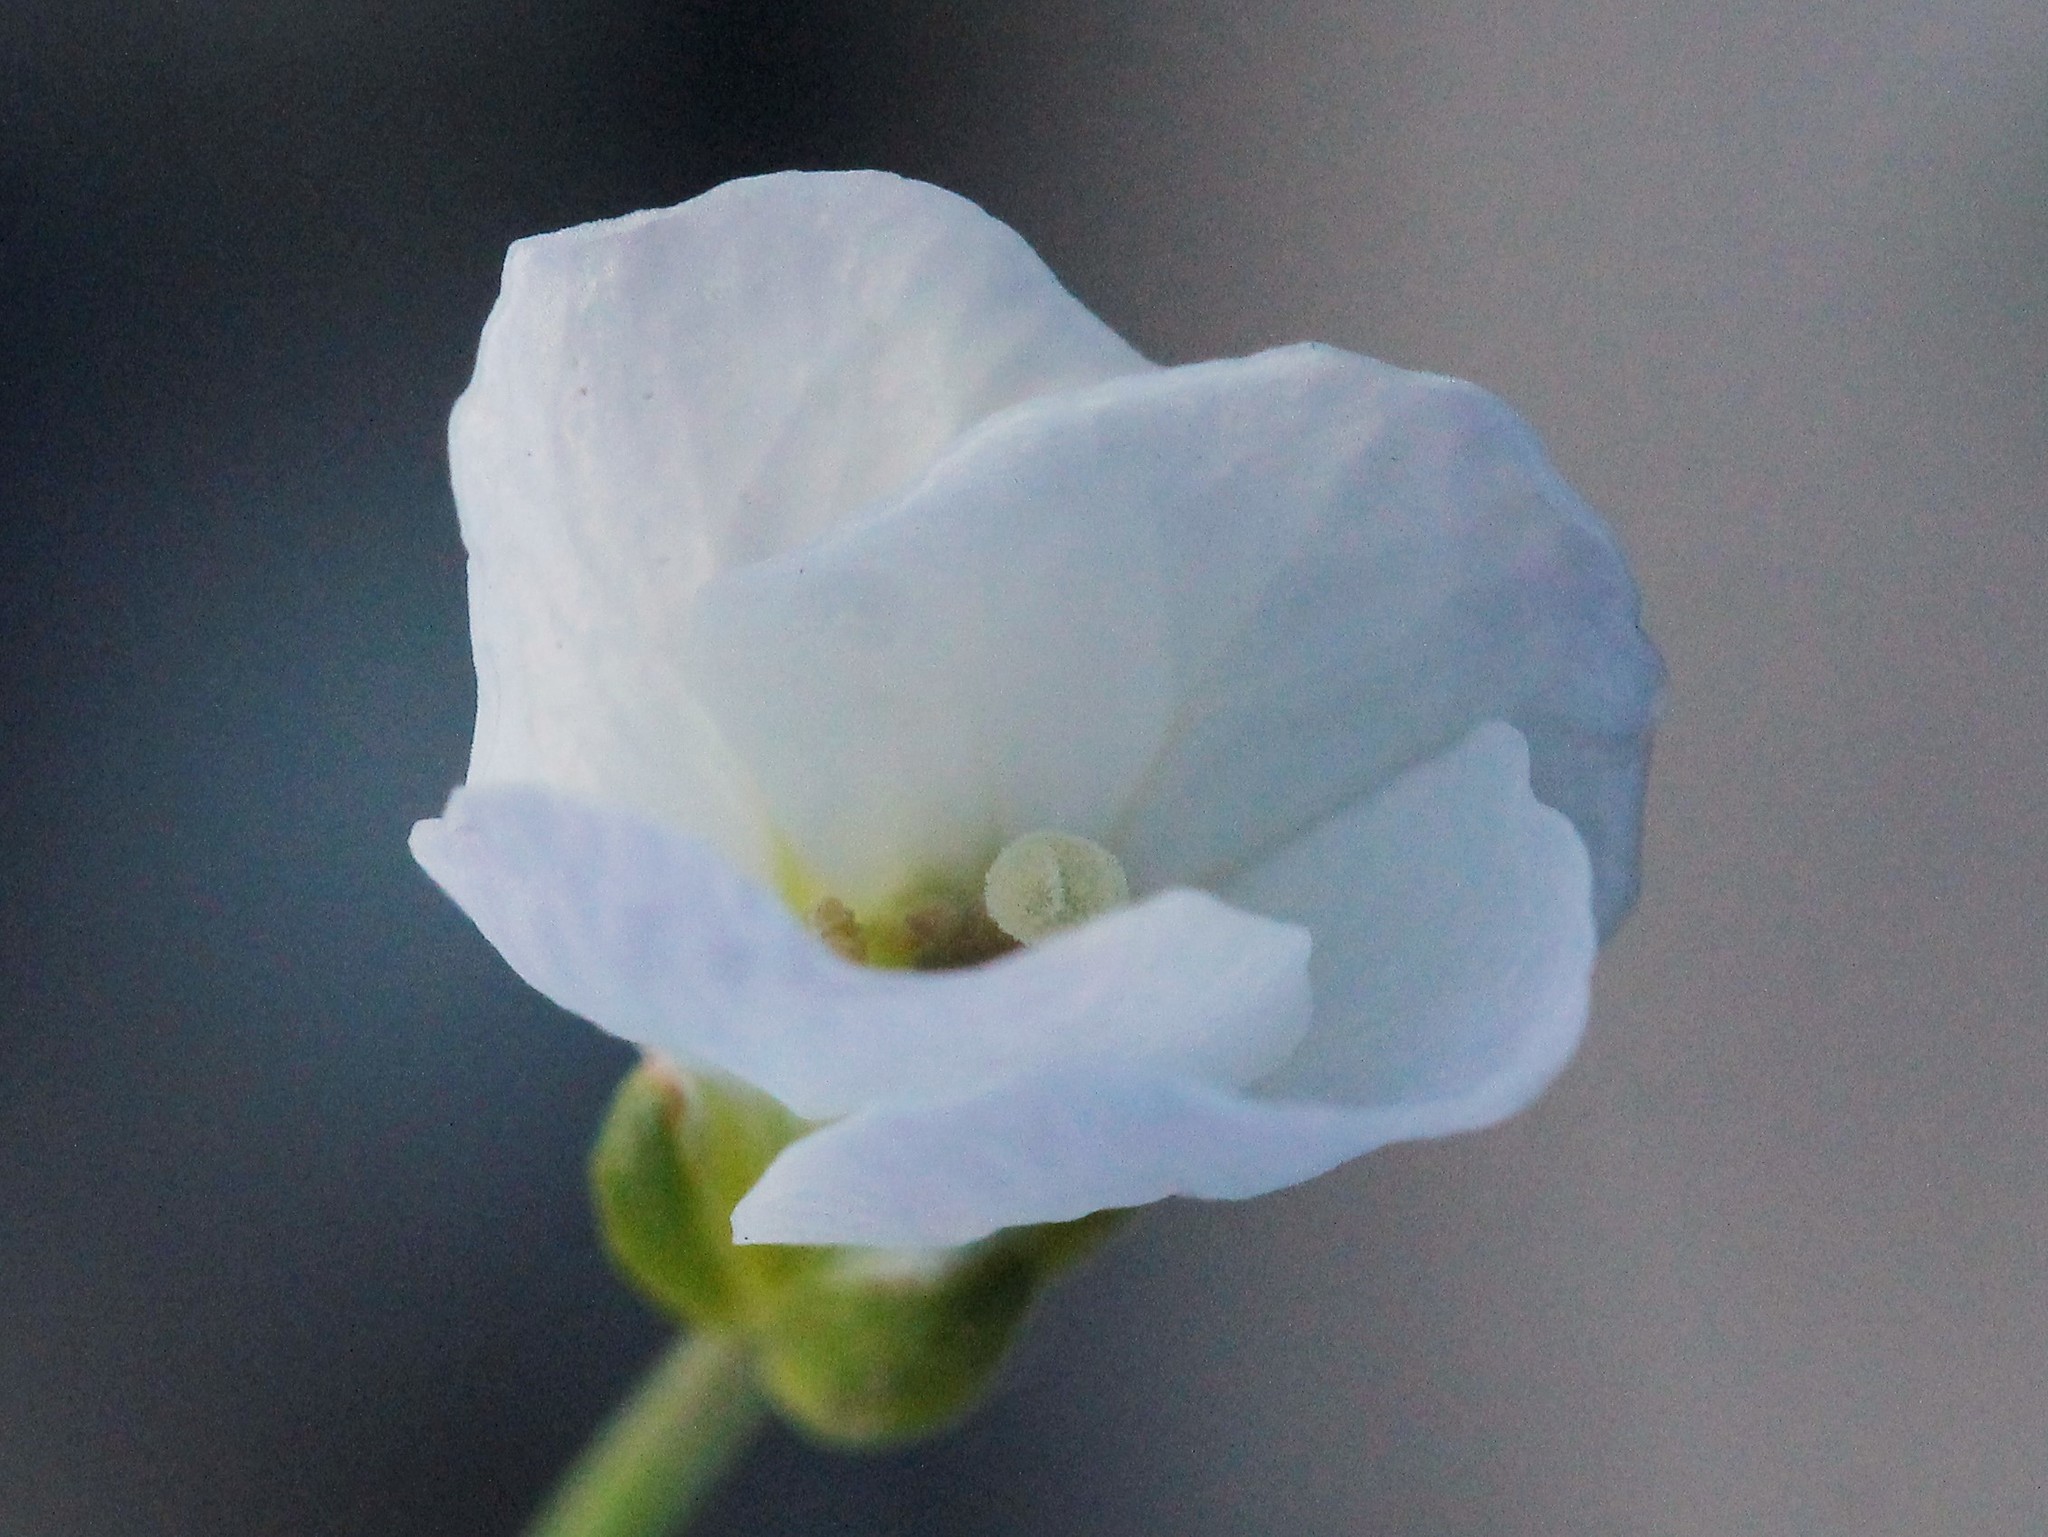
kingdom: Plantae
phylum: Tracheophyta
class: Magnoliopsida
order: Brassicales
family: Brassicaceae
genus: Cardamine
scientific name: Cardamine dentata
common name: Toothed bittercress
